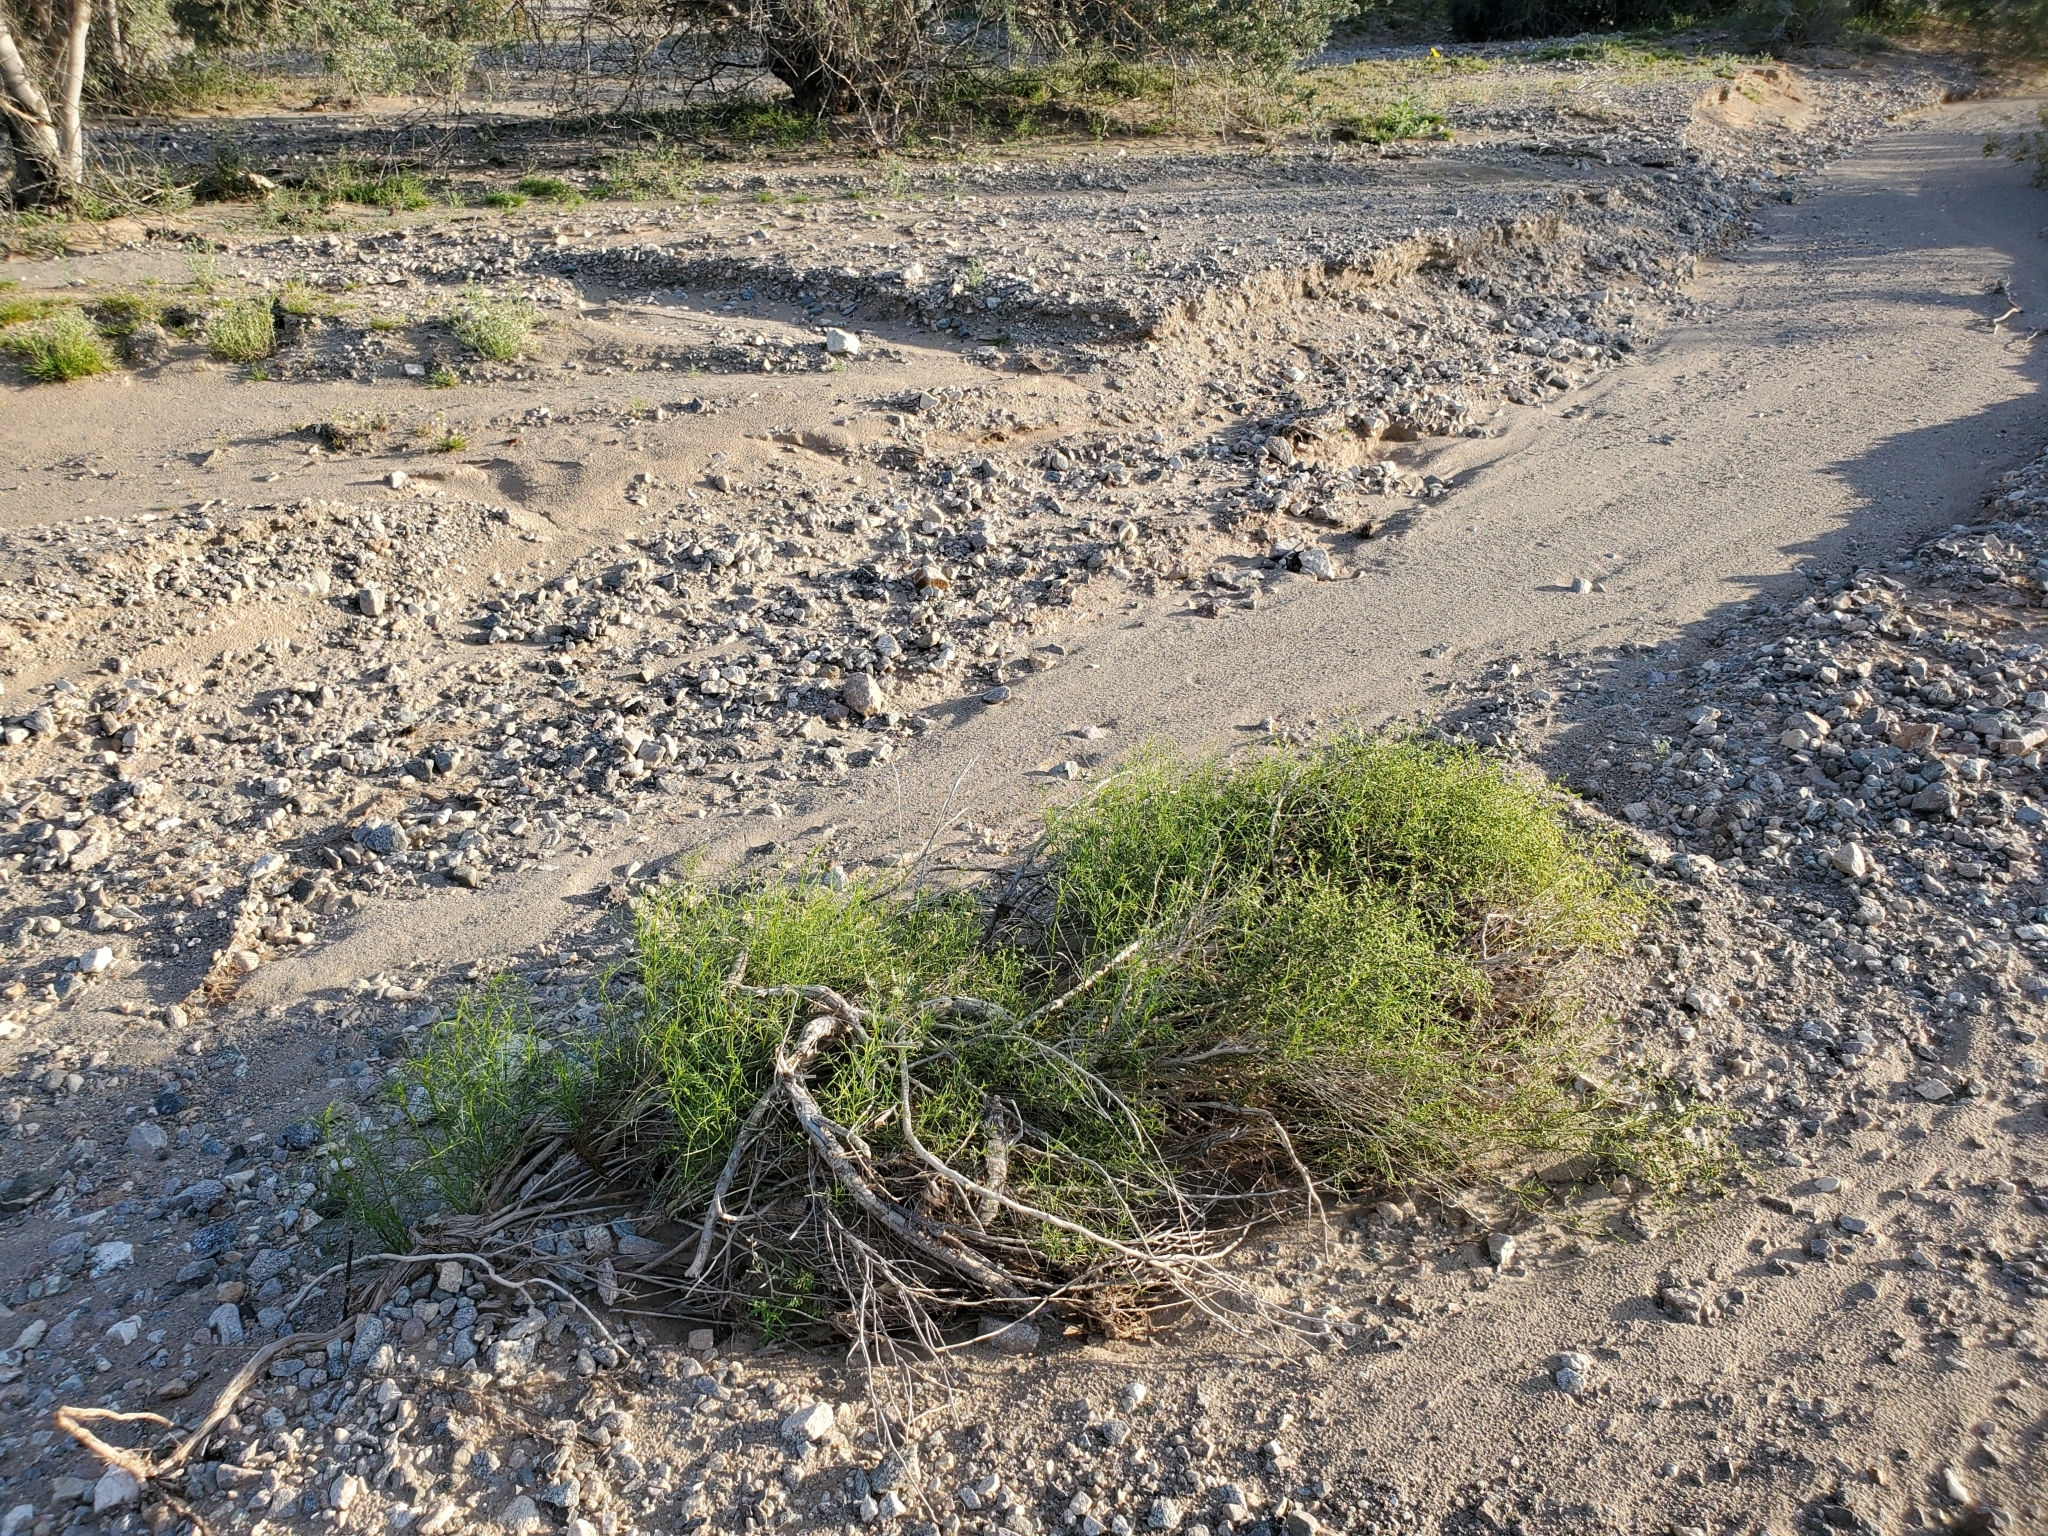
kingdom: Plantae
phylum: Tracheophyta
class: Magnoliopsida
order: Asterales
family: Asteraceae
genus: Ambrosia
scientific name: Ambrosia salsola
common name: Burrobrush
